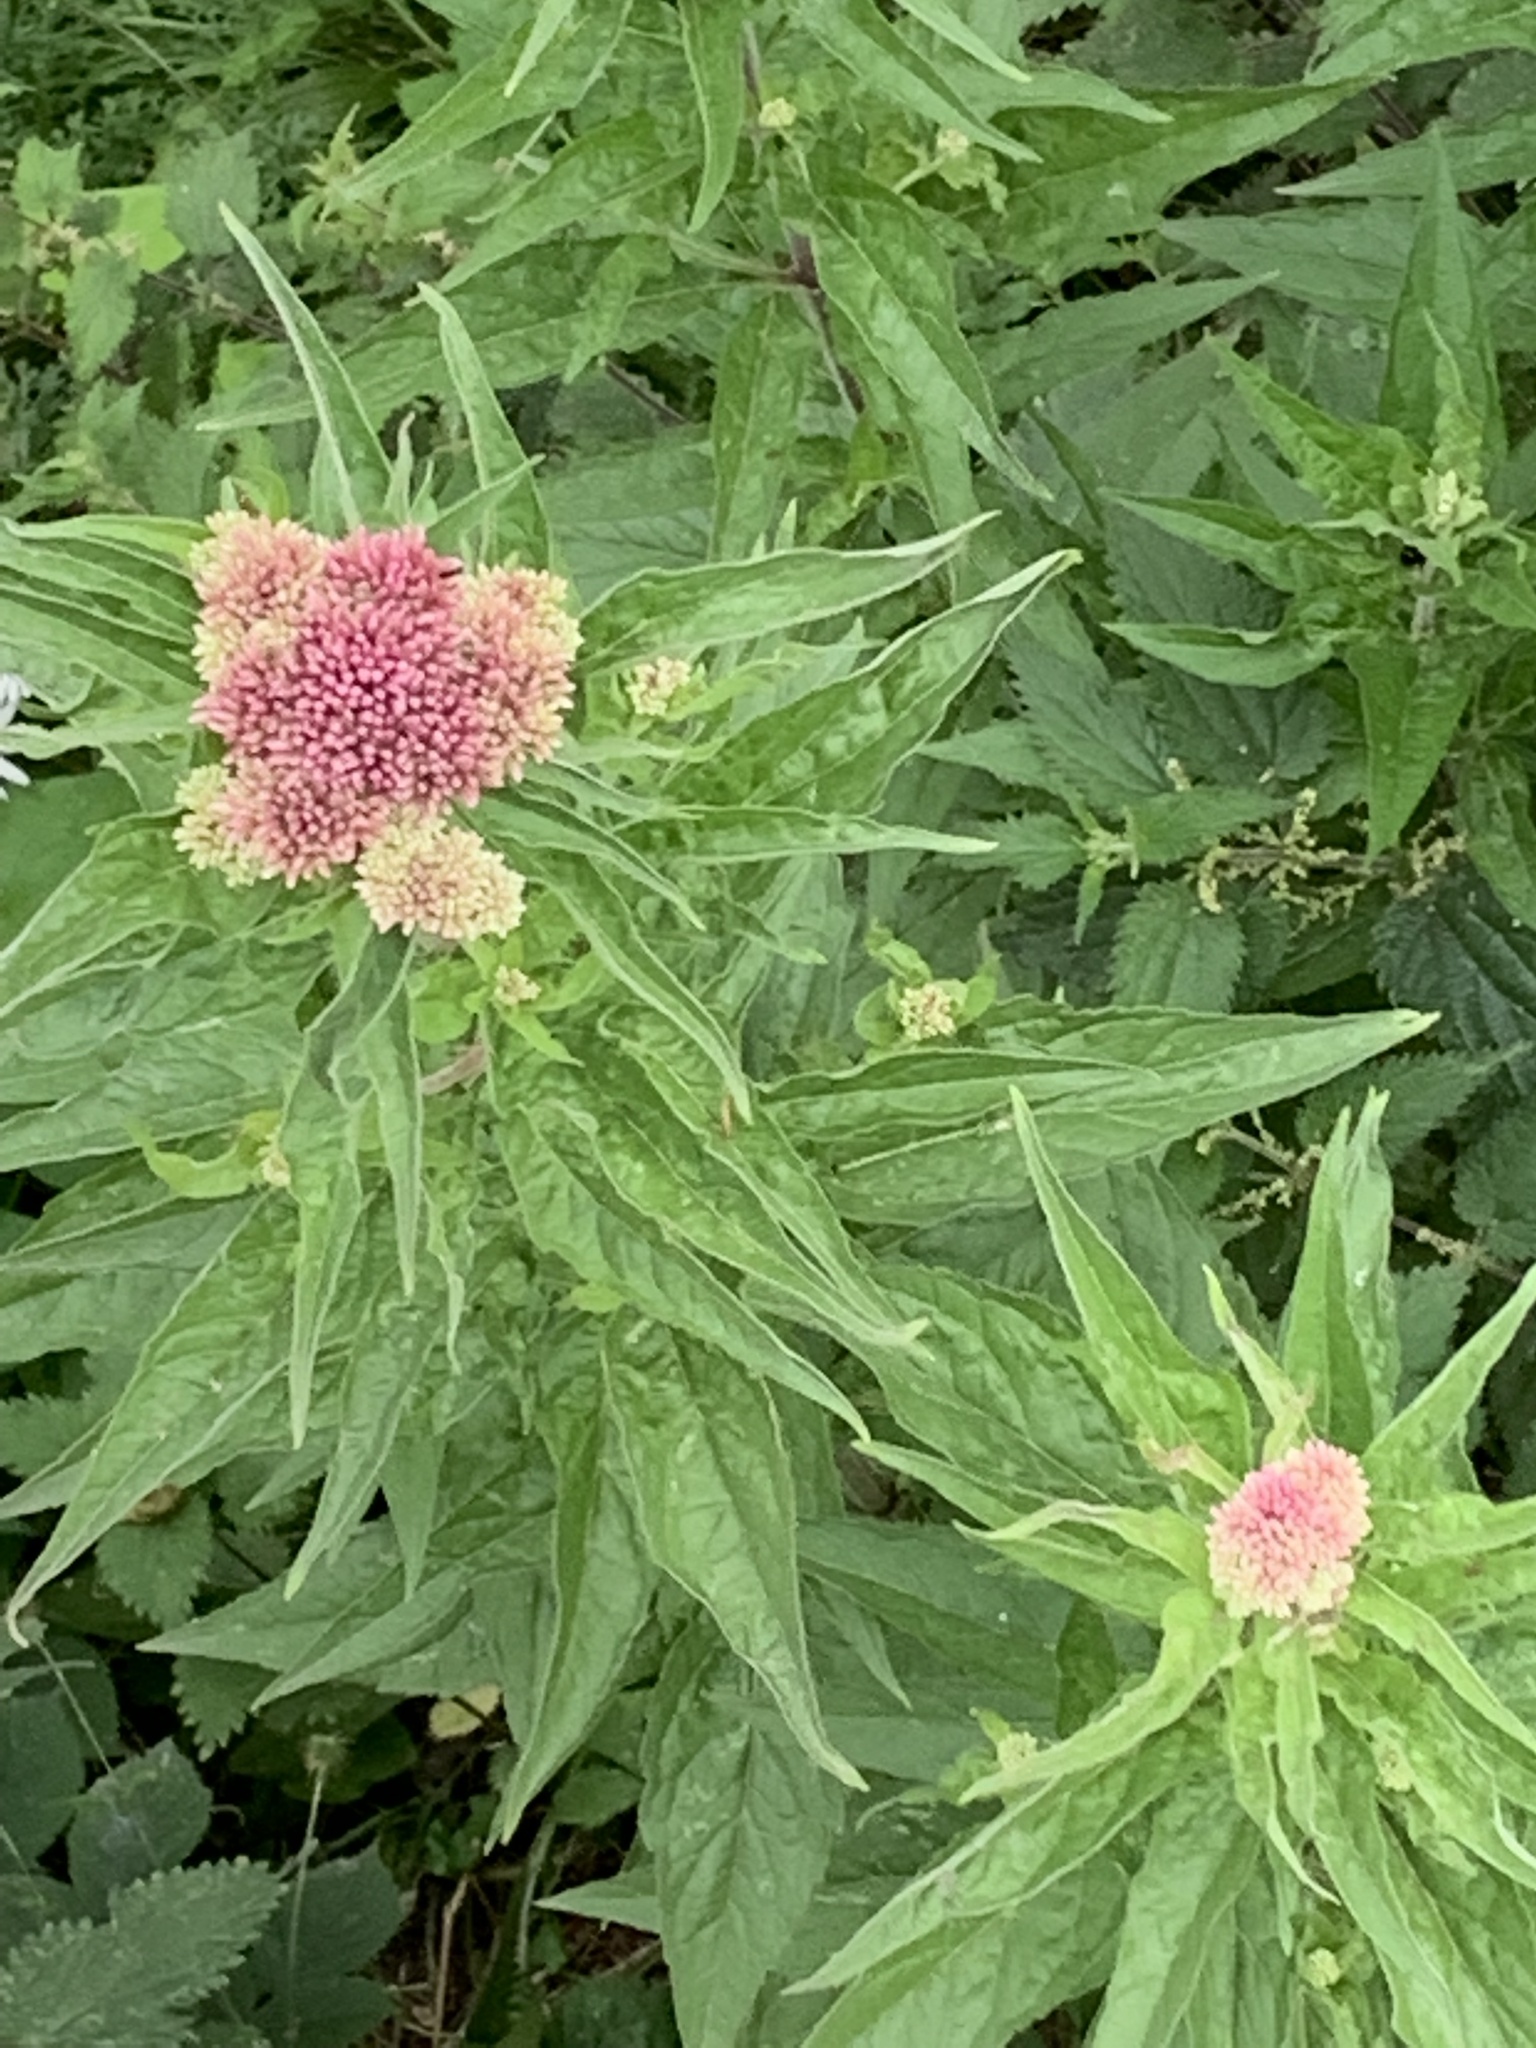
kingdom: Plantae
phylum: Tracheophyta
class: Magnoliopsida
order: Asterales
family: Asteraceae
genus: Eupatorium
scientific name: Eupatorium cannabinum
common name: Hemp-agrimony
